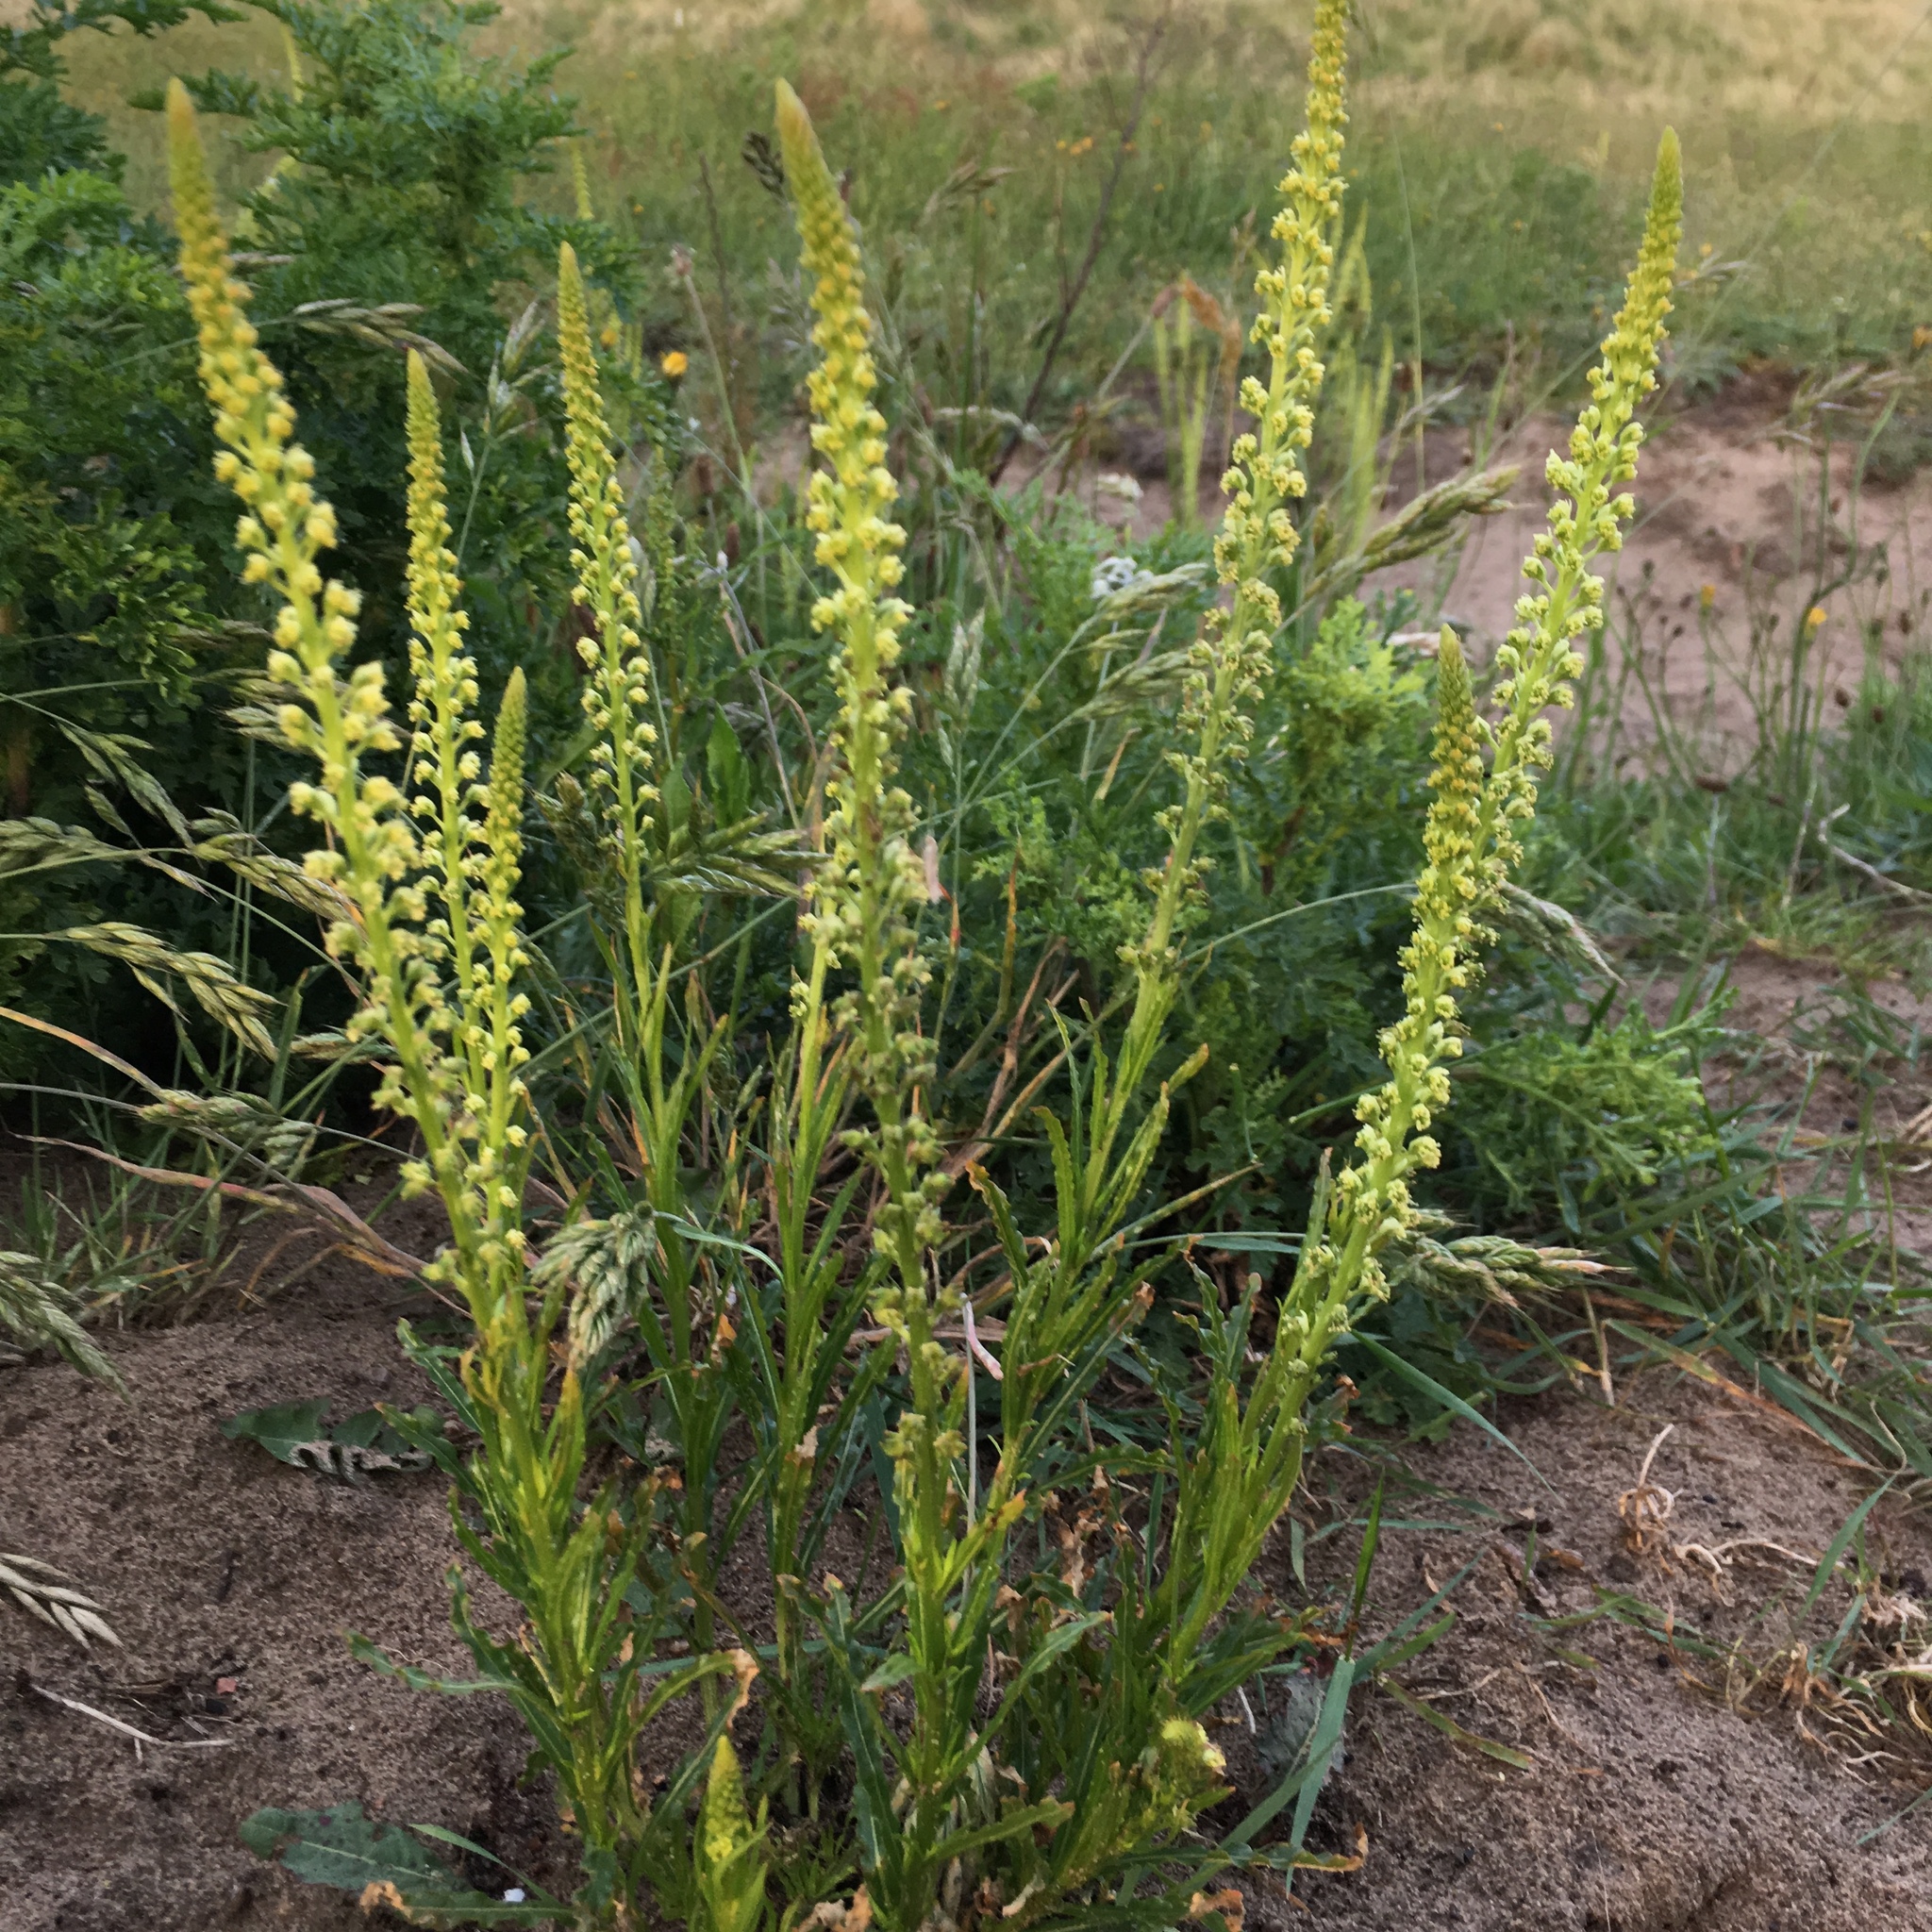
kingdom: Plantae
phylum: Tracheophyta
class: Magnoliopsida
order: Brassicales
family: Resedaceae
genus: Reseda
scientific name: Reseda luteola
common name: Weld
